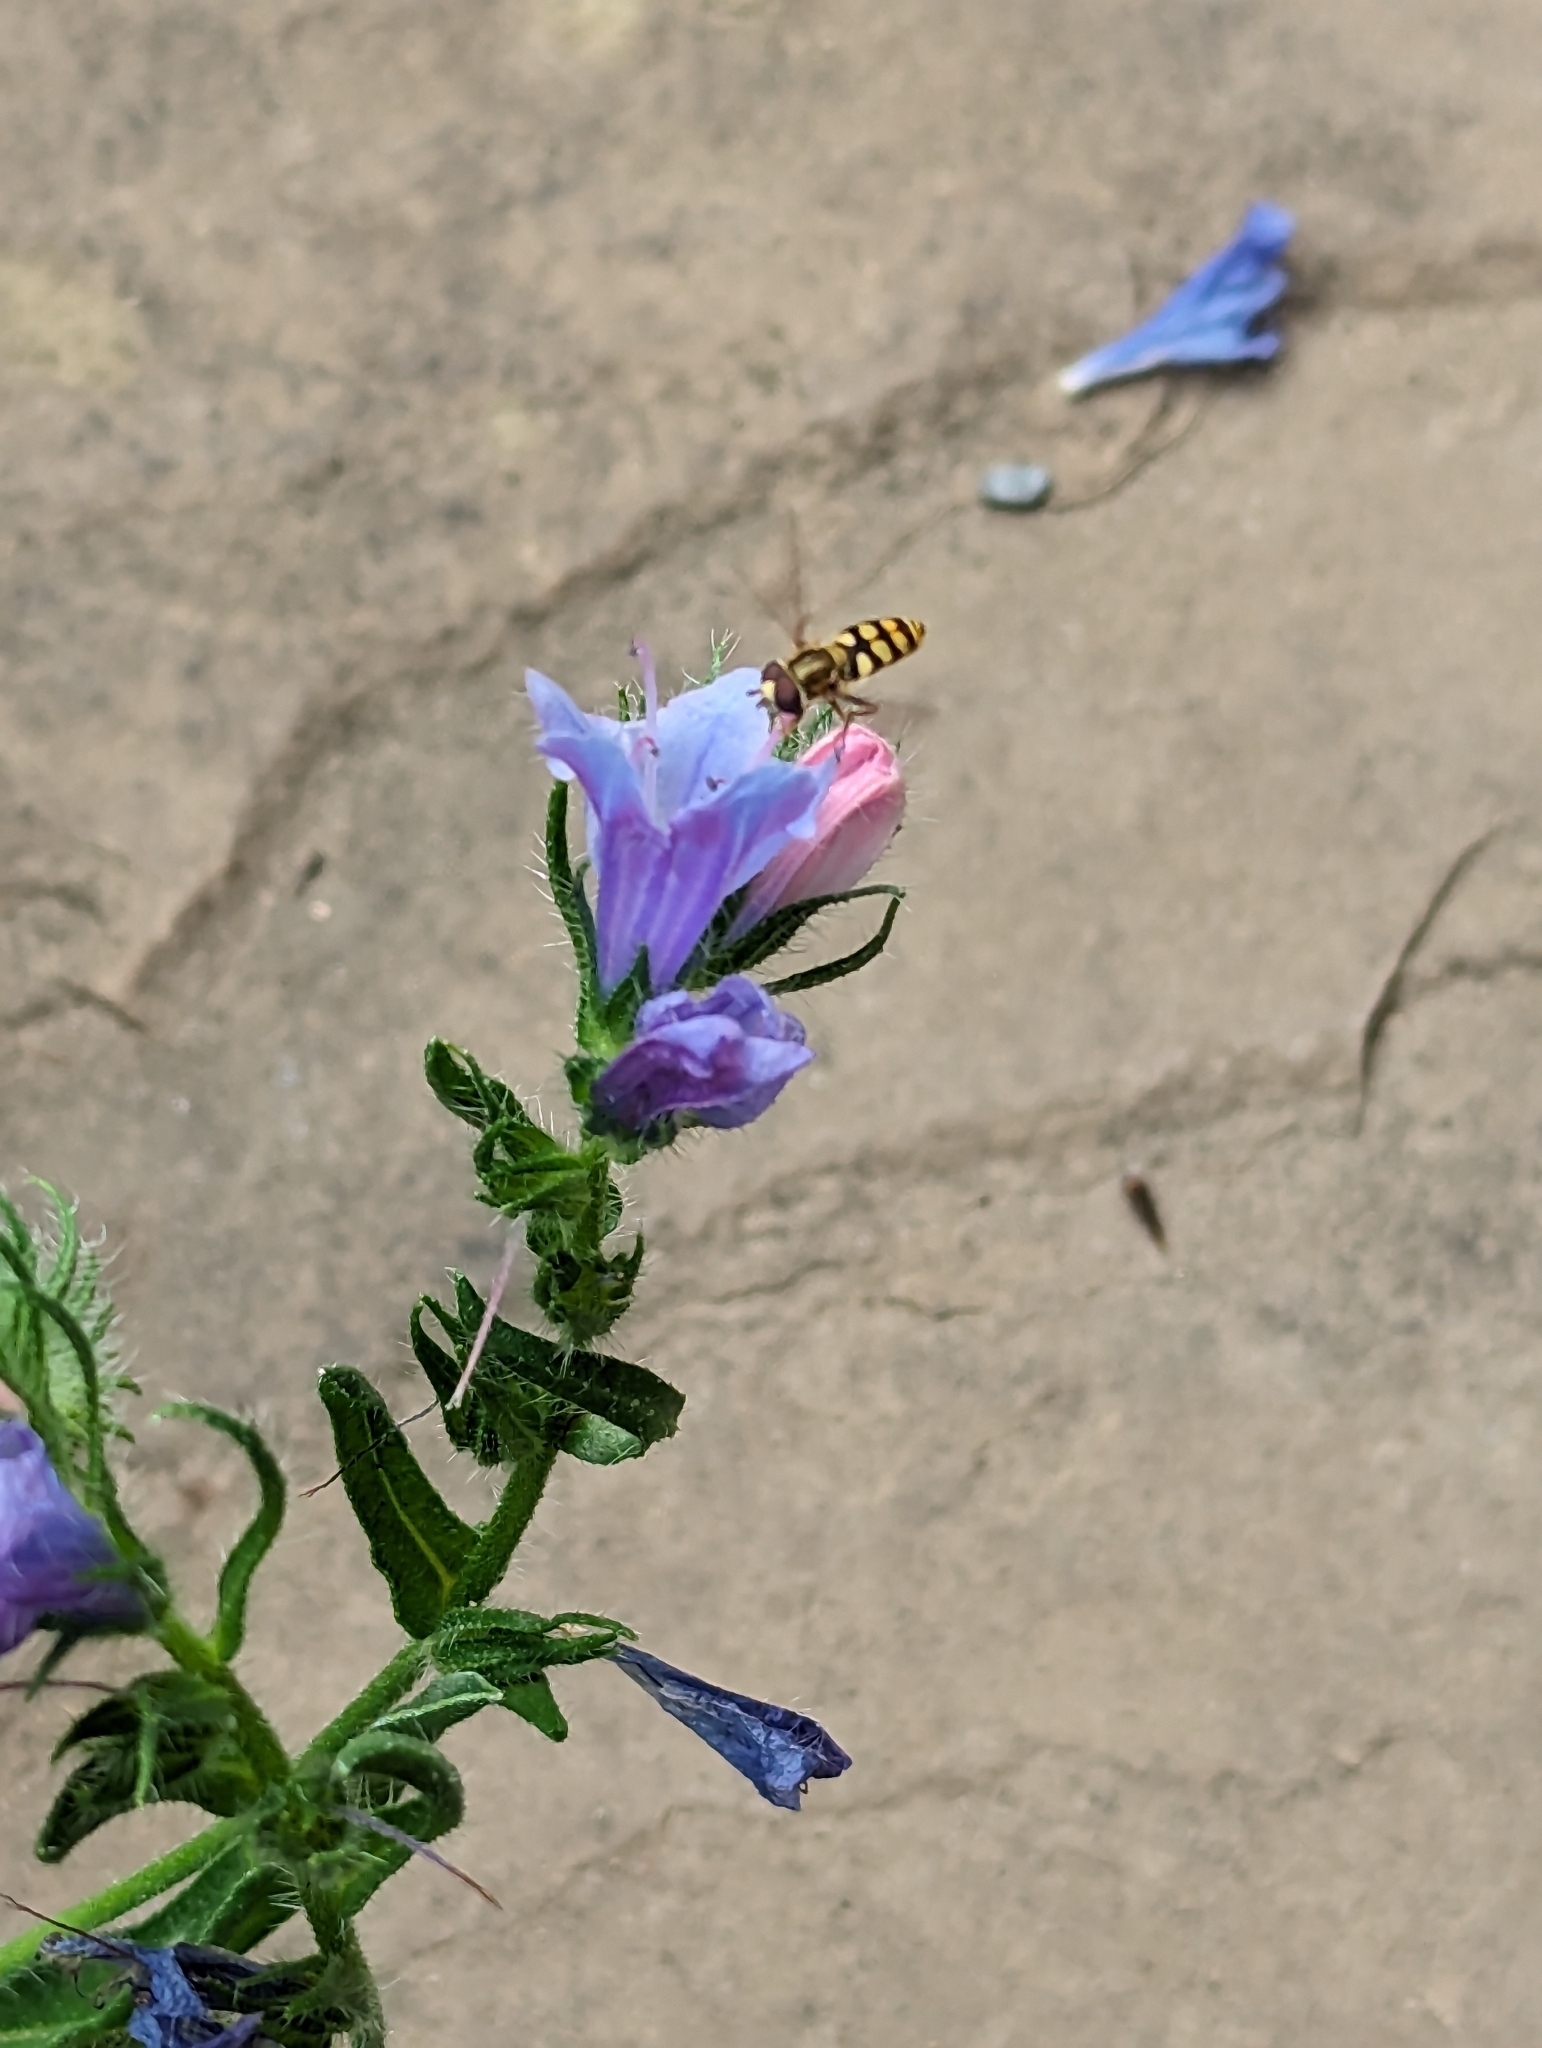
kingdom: Animalia
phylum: Arthropoda
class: Insecta
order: Diptera
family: Syrphidae
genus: Eupeodes
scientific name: Eupeodes corollae
